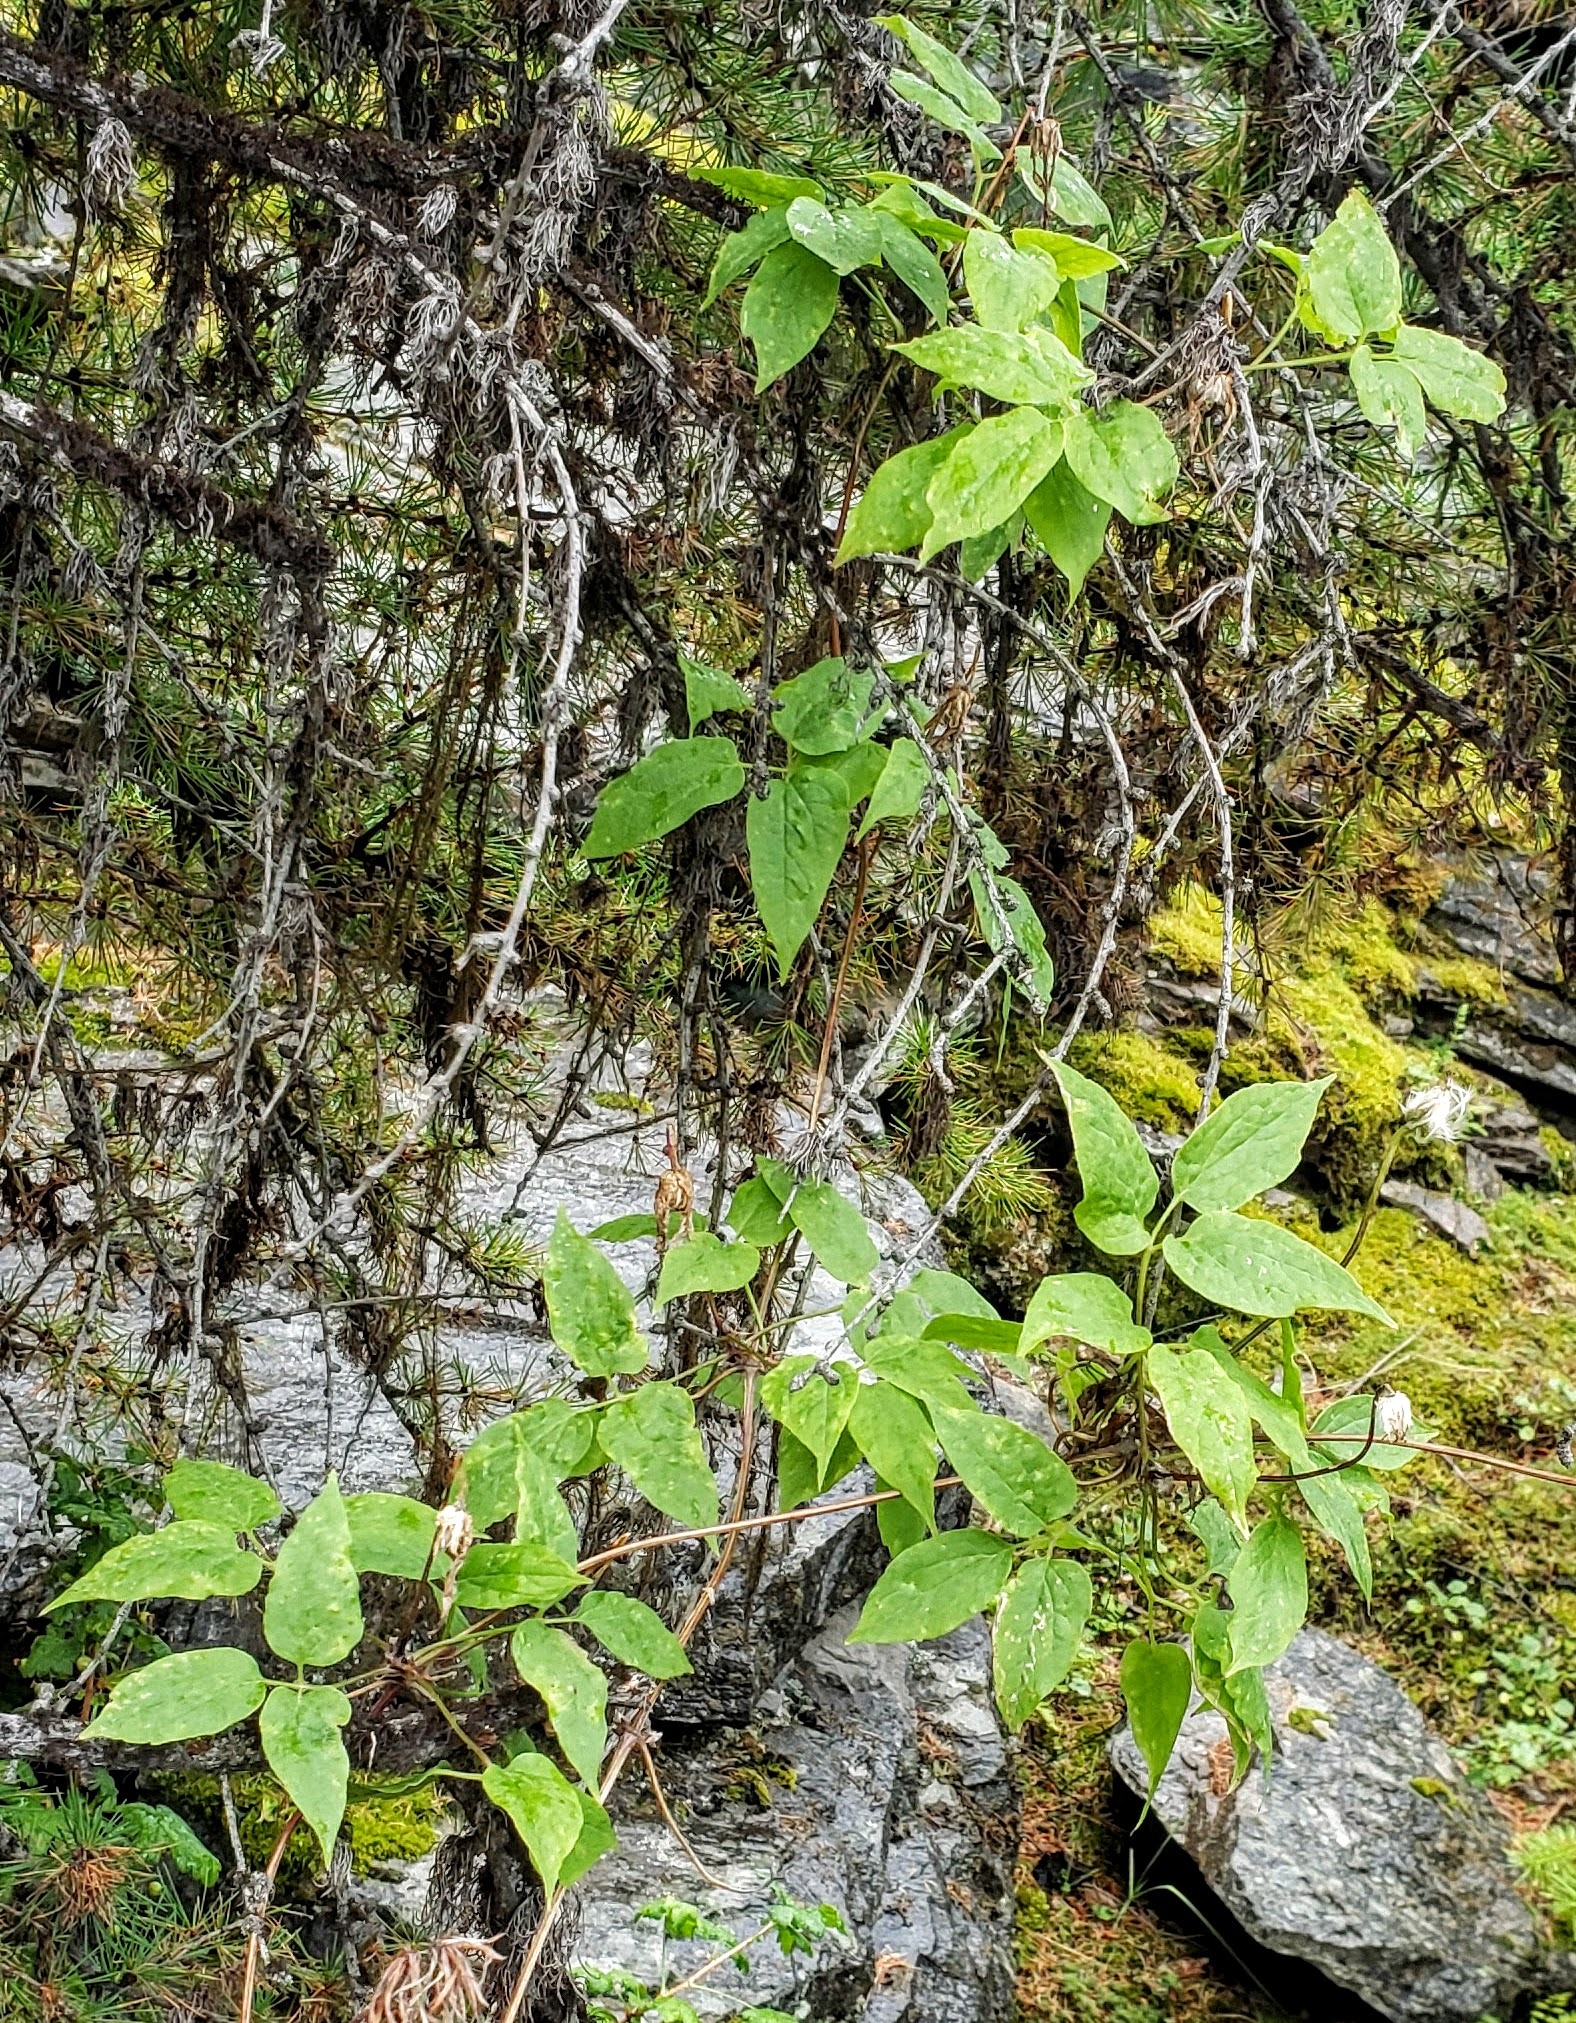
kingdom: Plantae
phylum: Tracheophyta
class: Magnoliopsida
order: Ranunculales
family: Ranunculaceae
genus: Clematis
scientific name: Clematis occidentalis
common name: Purple clematis
